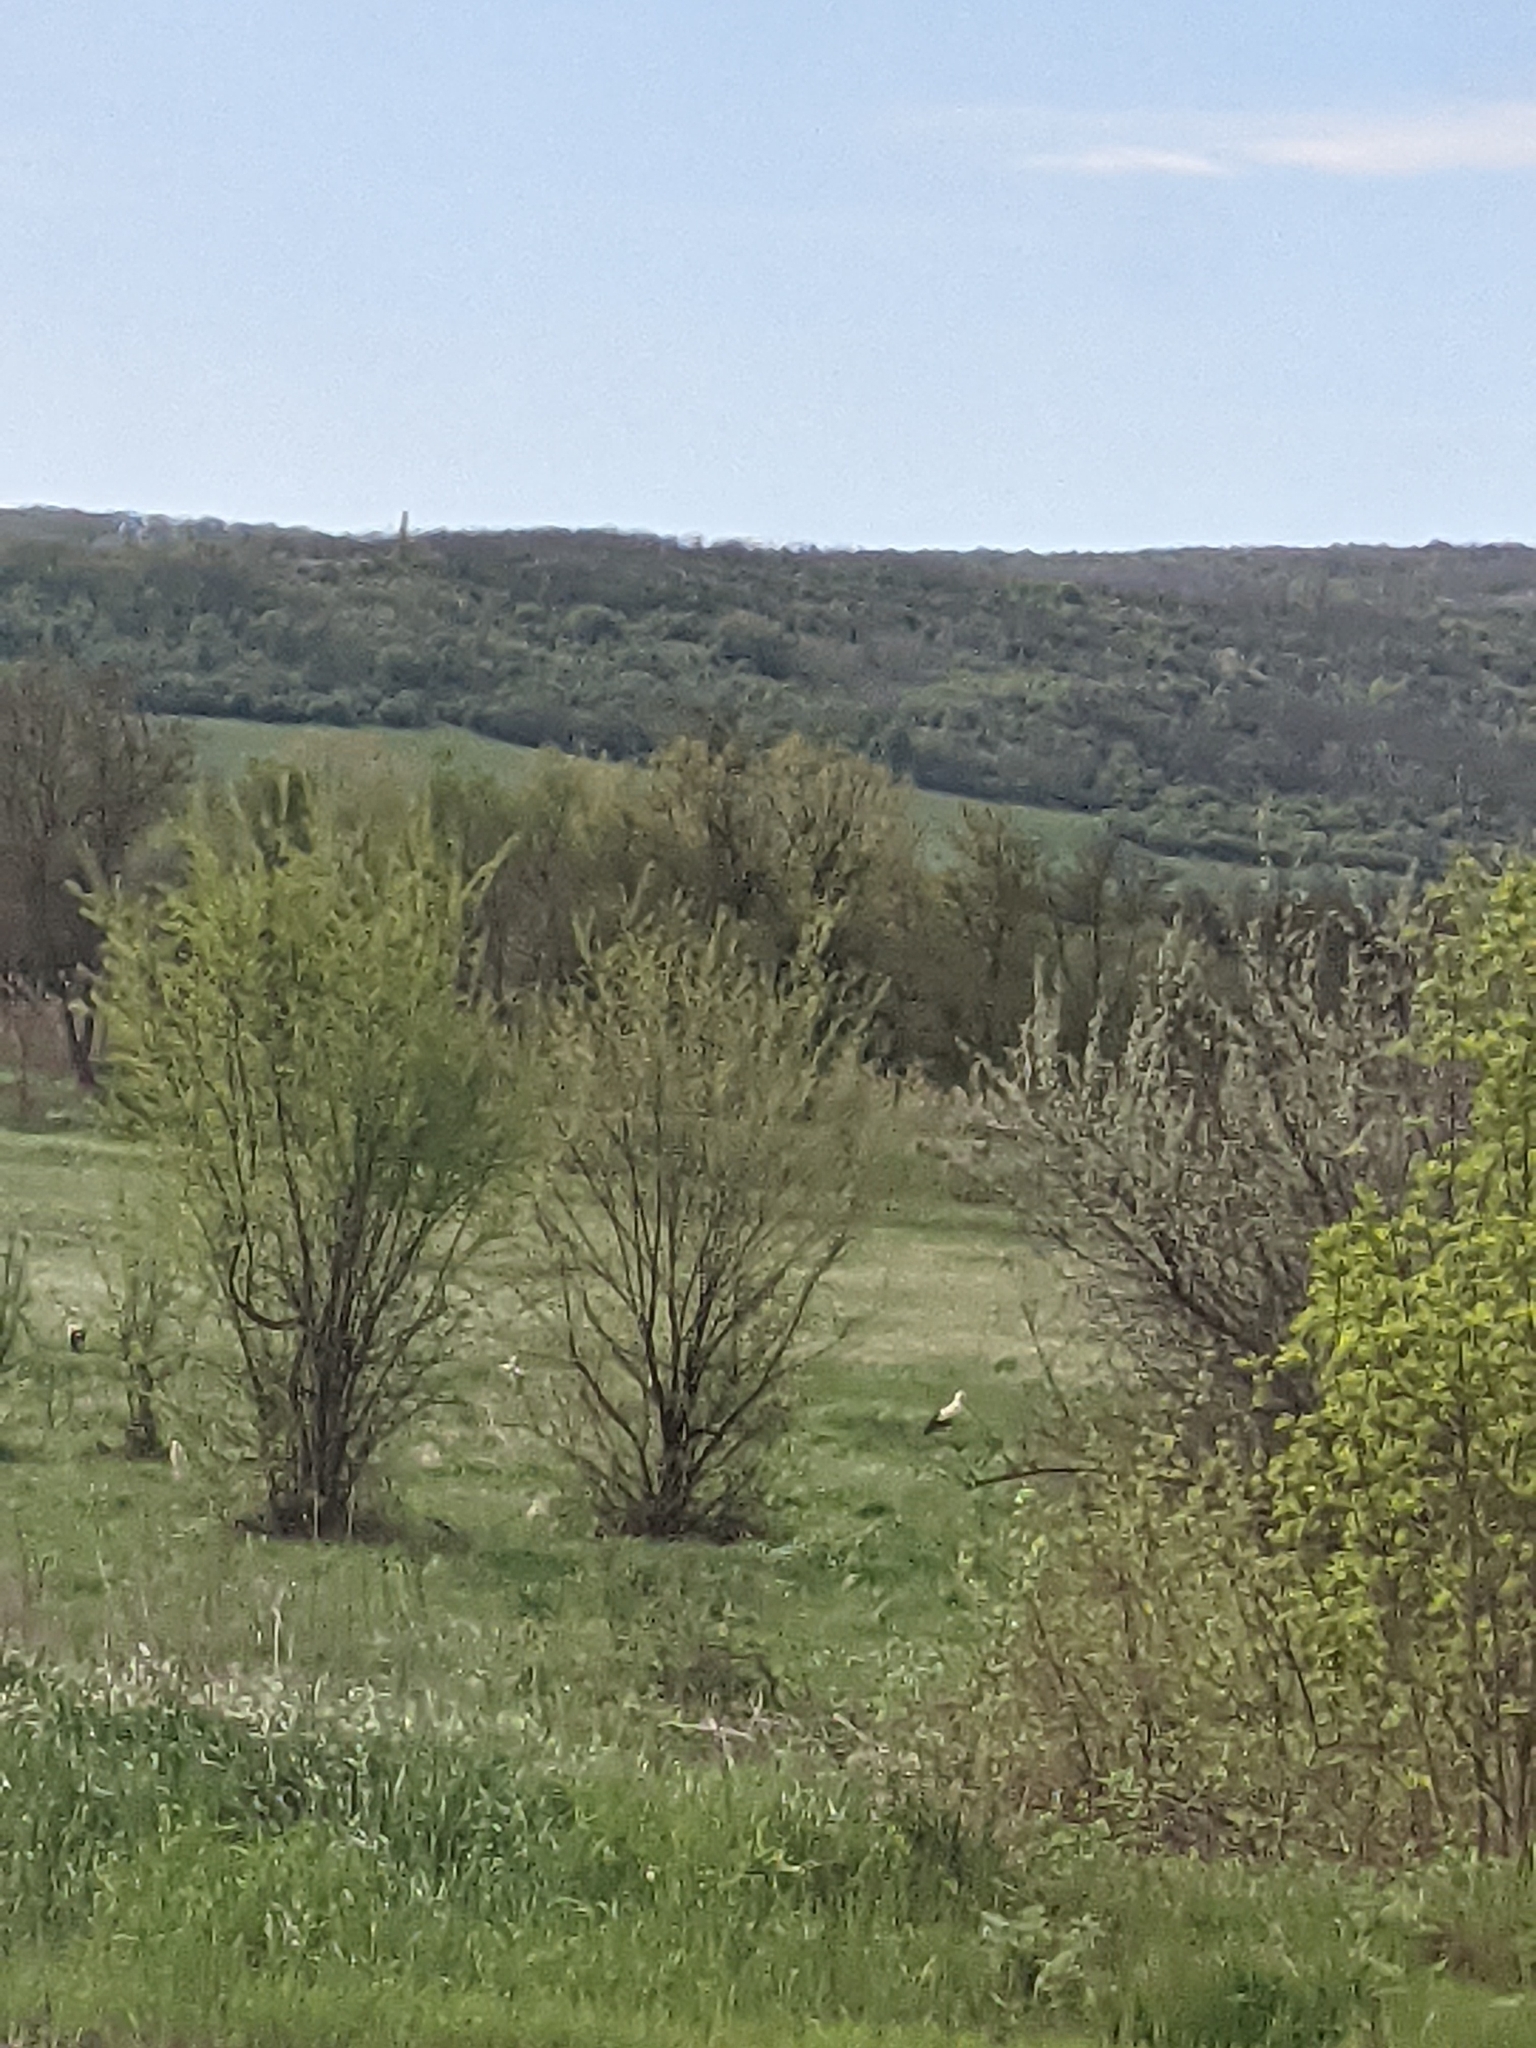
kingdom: Animalia
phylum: Chordata
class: Aves
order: Ciconiiformes
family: Ciconiidae
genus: Ciconia
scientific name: Ciconia ciconia
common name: White stork
